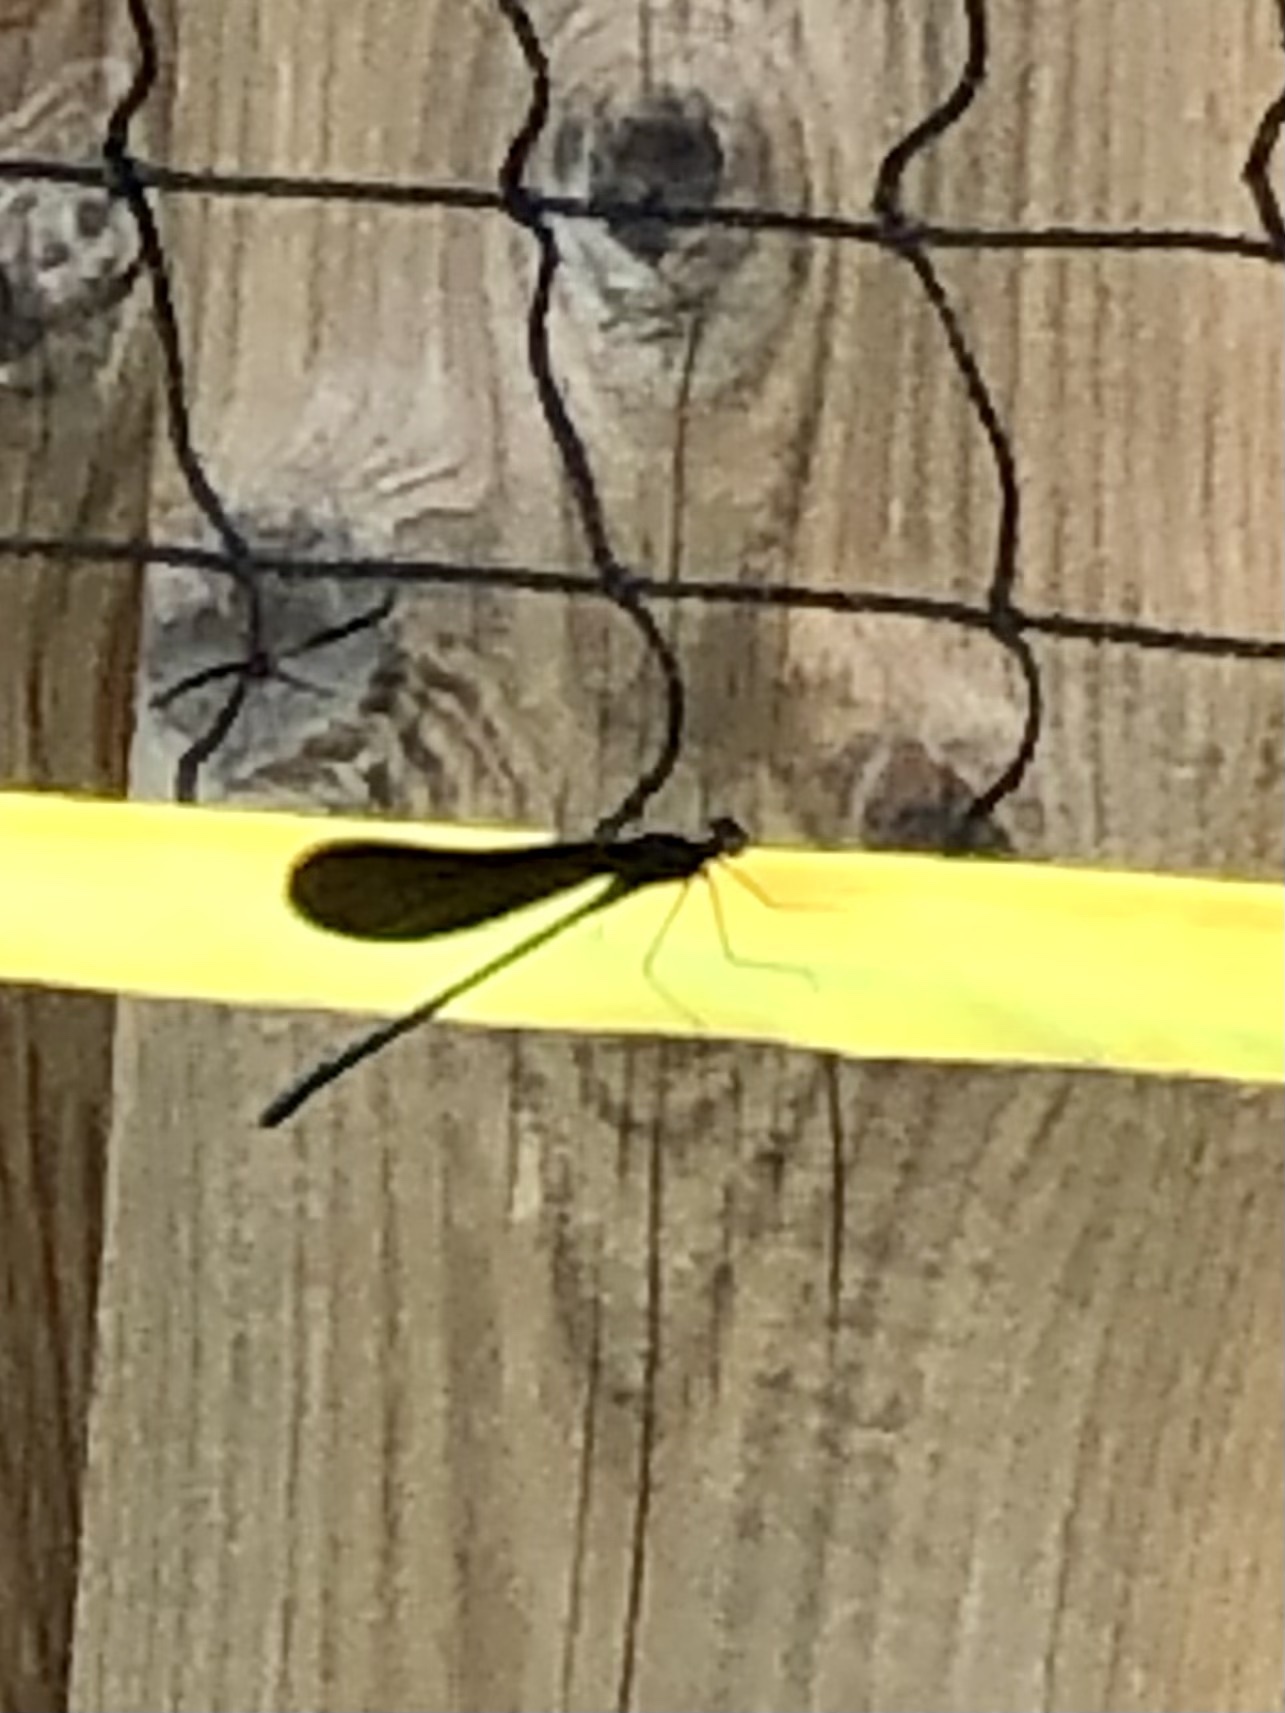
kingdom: Animalia
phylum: Arthropoda
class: Insecta
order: Odonata
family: Calopterygidae
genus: Calopteryx
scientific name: Calopteryx maculata
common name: Ebony jewelwing
